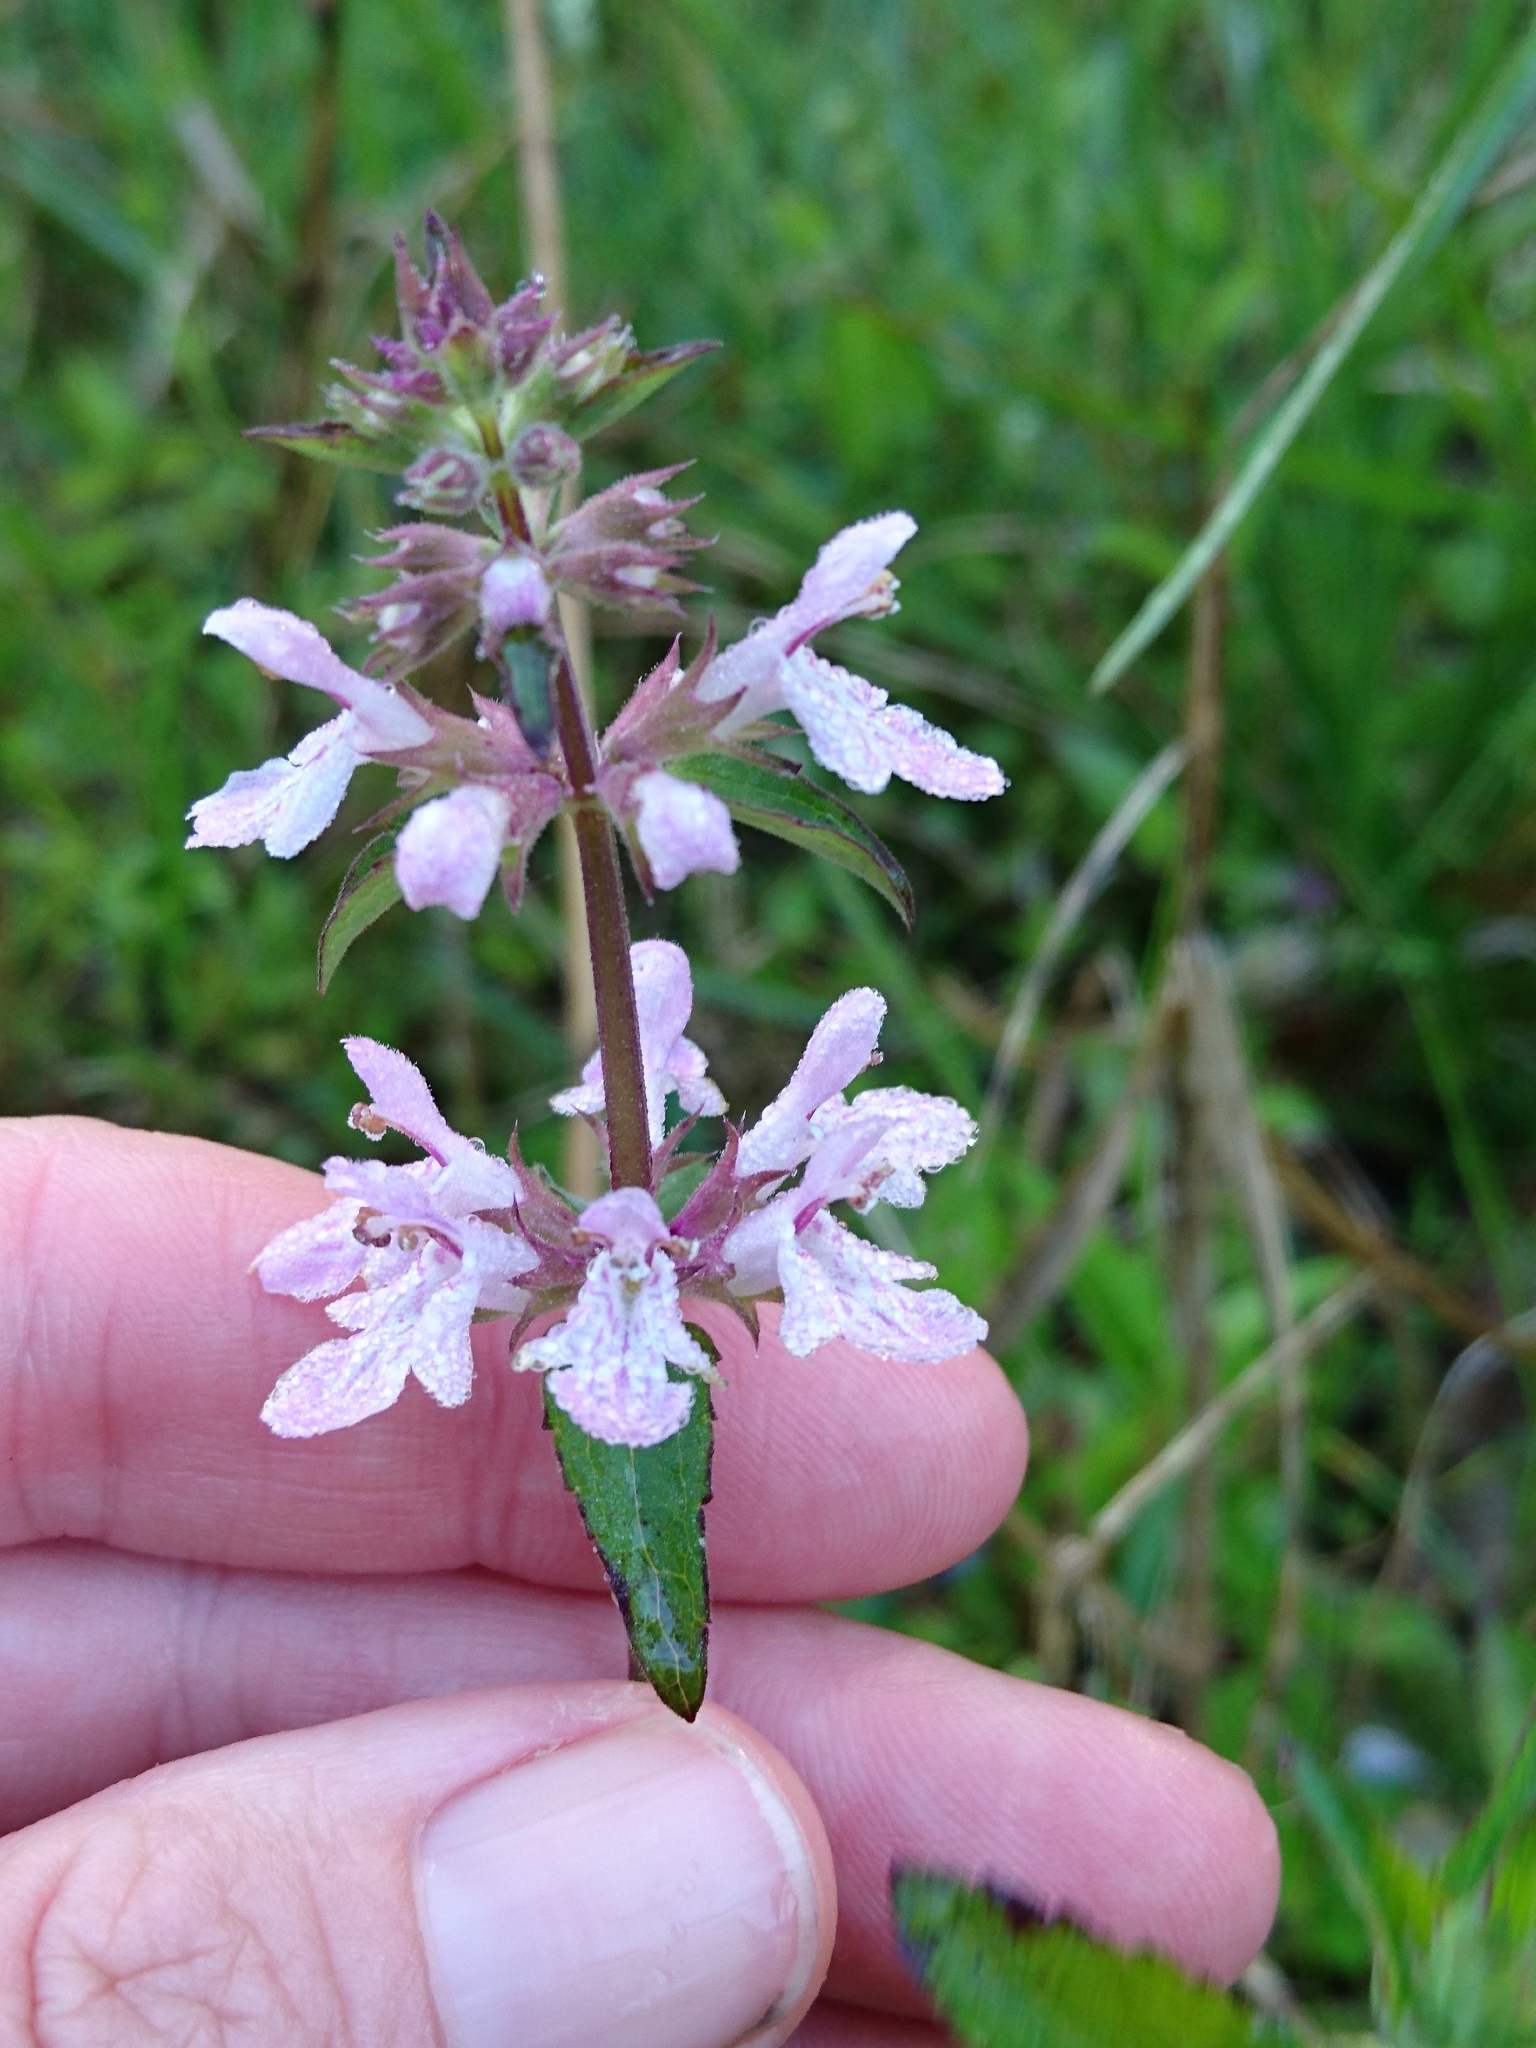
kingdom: Plantae
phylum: Tracheophyta
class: Magnoliopsida
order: Lamiales
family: Lamiaceae
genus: Stachys
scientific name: Stachys floridana
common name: Florida betony
